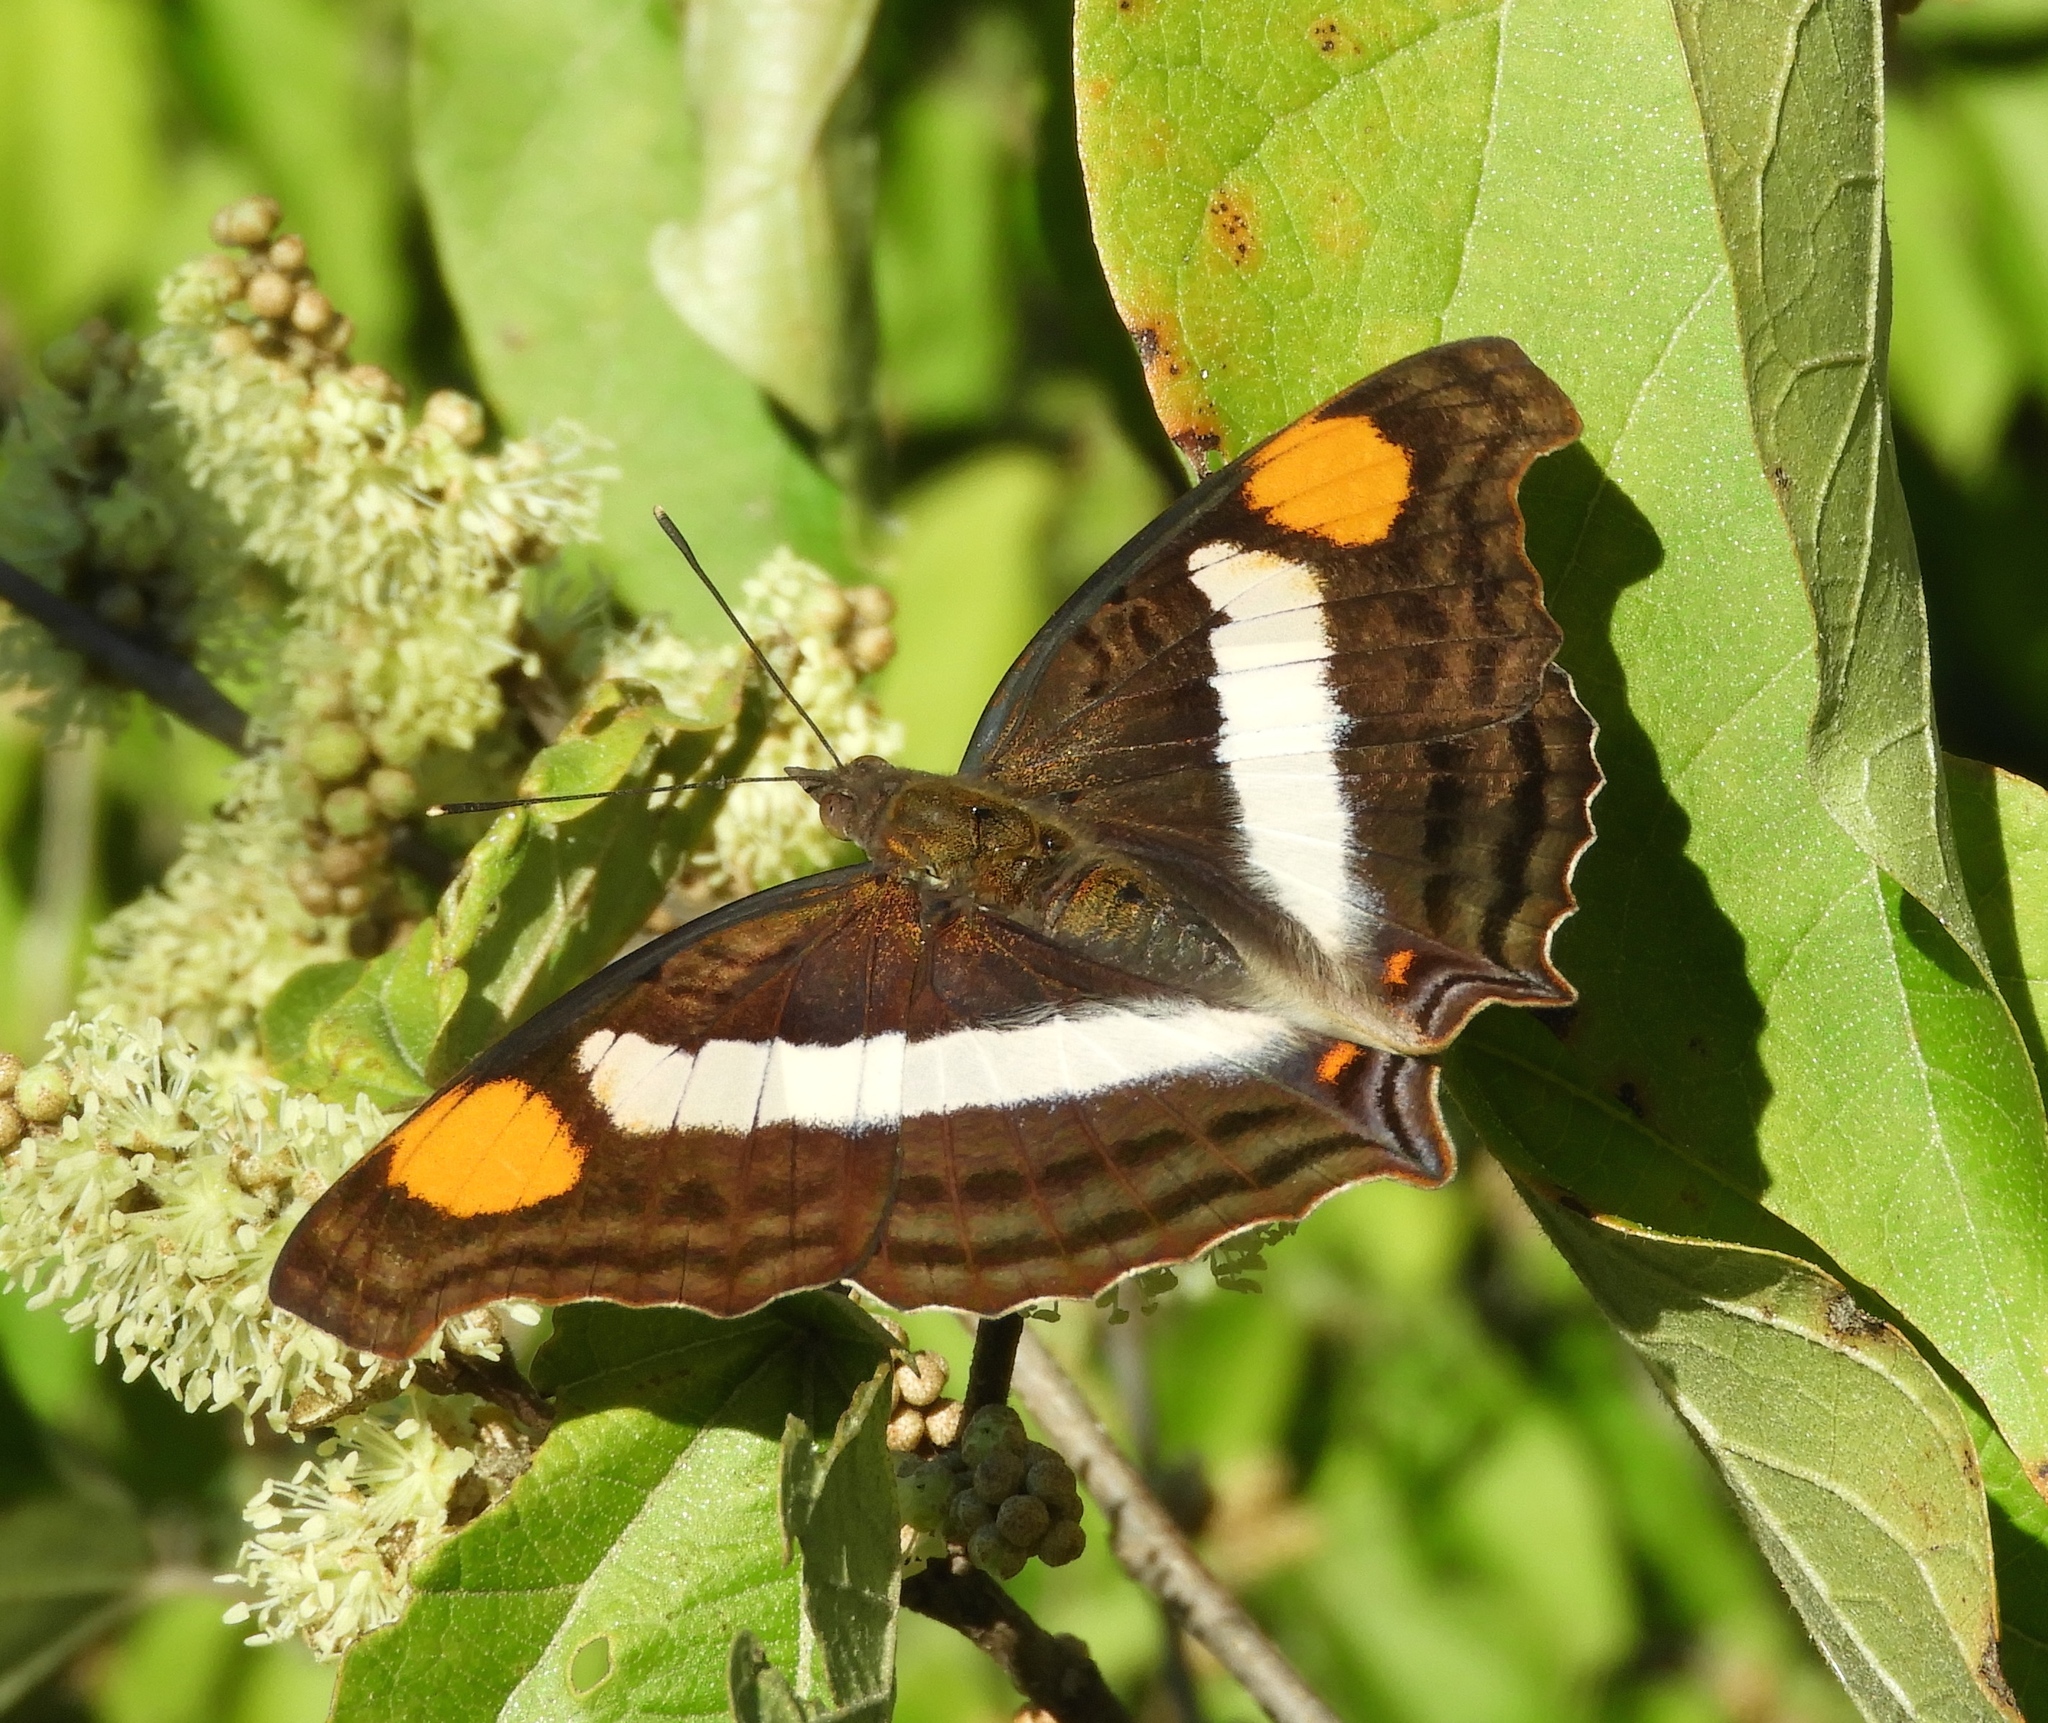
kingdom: Animalia
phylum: Arthropoda
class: Insecta
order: Lepidoptera
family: Nymphalidae
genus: Doxocopa
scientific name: Doxocopa laure
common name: Silver emperor
